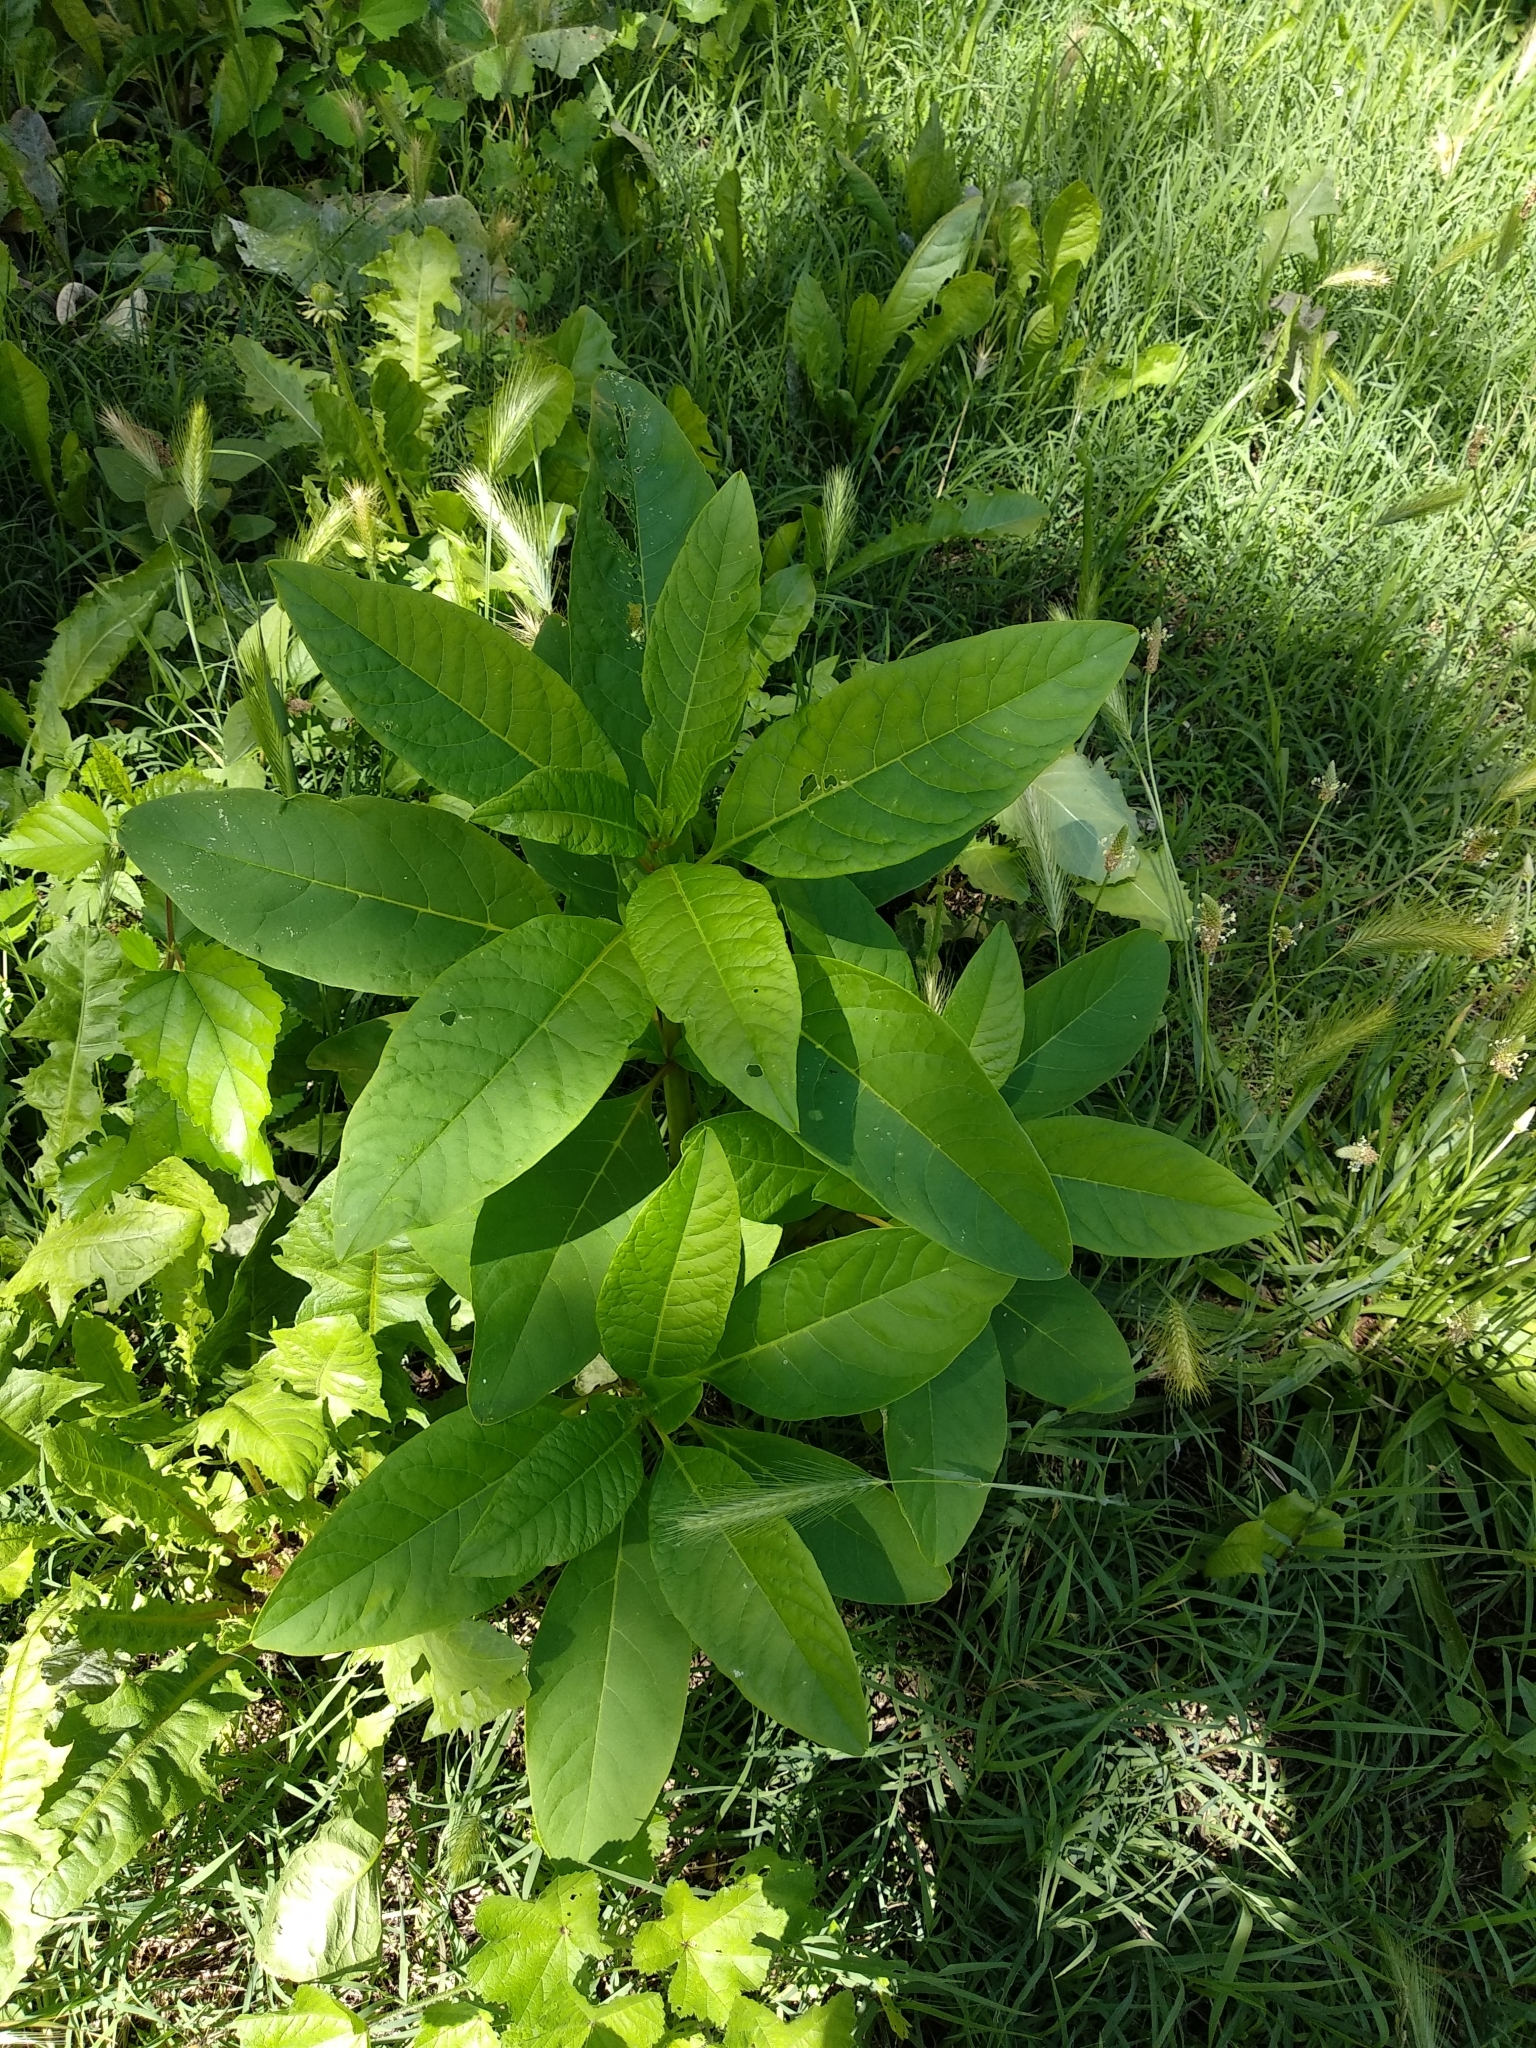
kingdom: Plantae
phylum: Tracheophyta
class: Magnoliopsida
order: Caryophyllales
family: Phytolaccaceae
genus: Phytolacca
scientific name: Phytolacca americana
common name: American pokeweed
